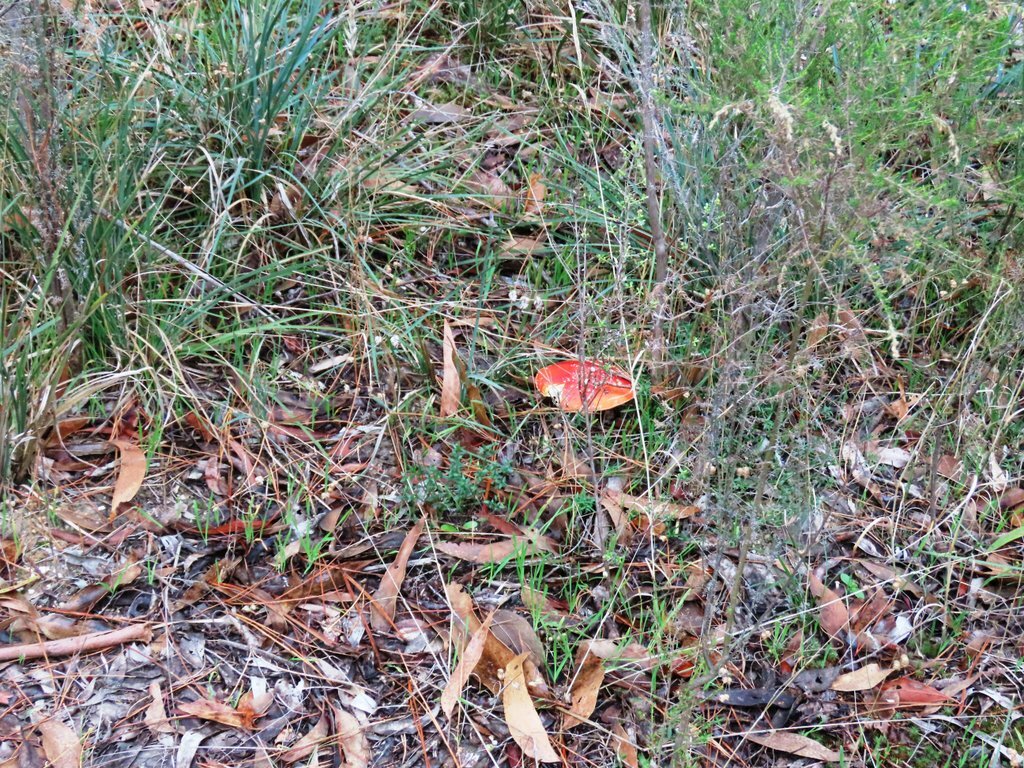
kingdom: Fungi
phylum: Basidiomycota
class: Agaricomycetes
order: Agaricales
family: Amanitaceae
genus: Amanita
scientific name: Amanita muscaria
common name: Fly agaric
